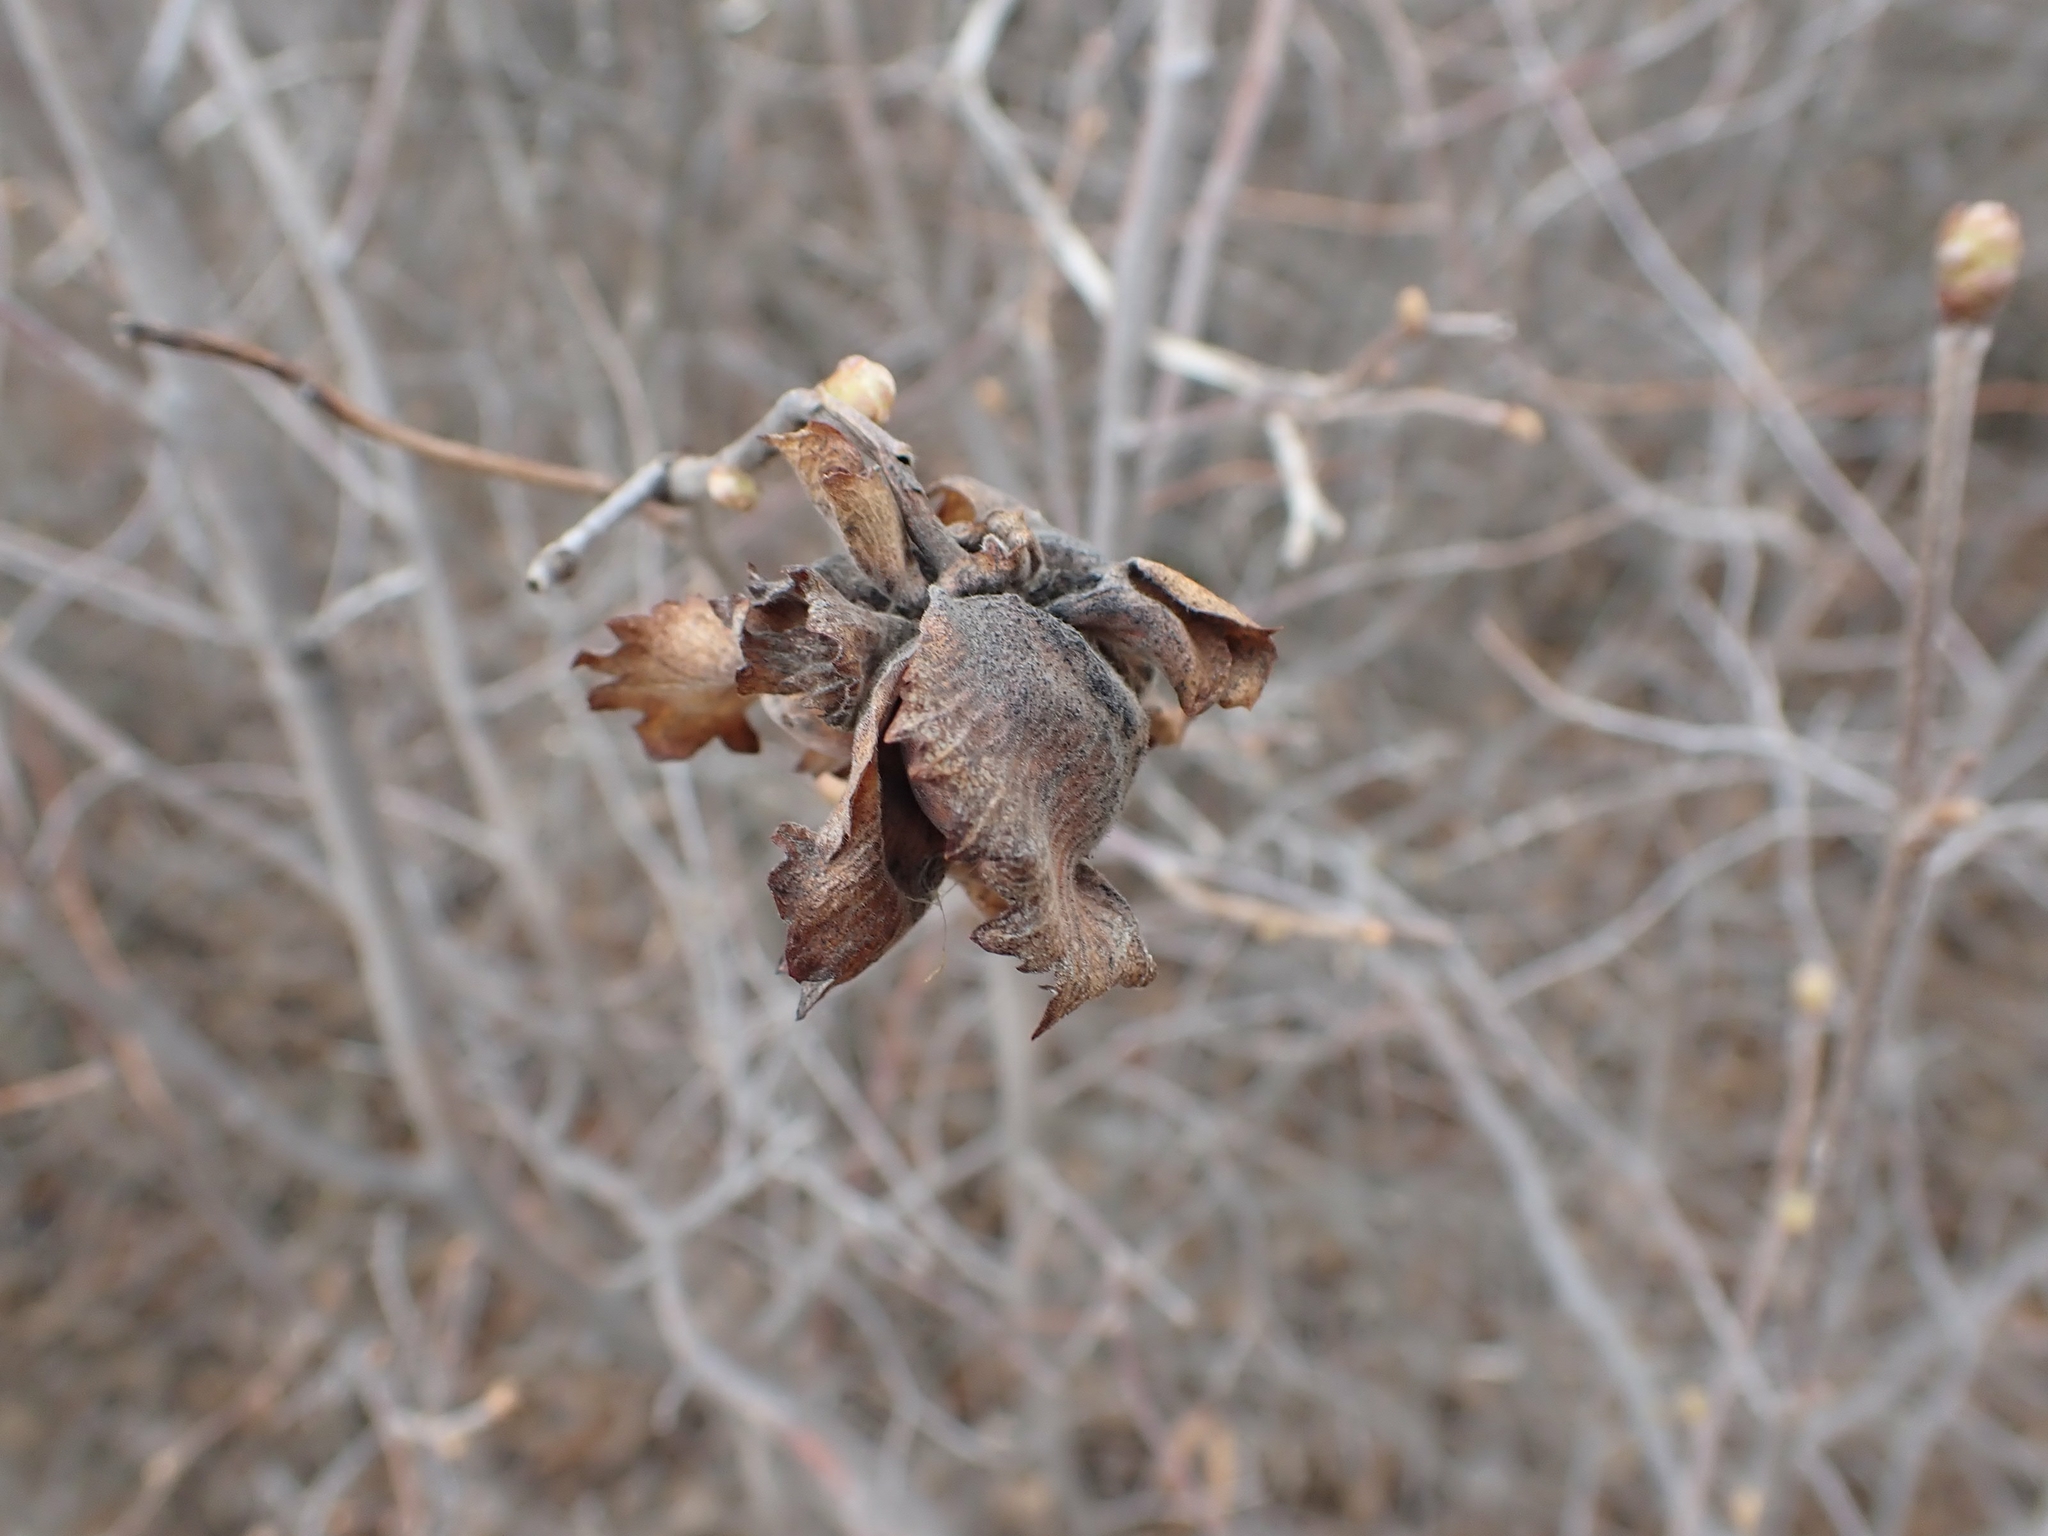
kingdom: Plantae
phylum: Tracheophyta
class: Magnoliopsida
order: Fagales
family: Betulaceae
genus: Corylus
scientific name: Corylus americana
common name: American hazel
